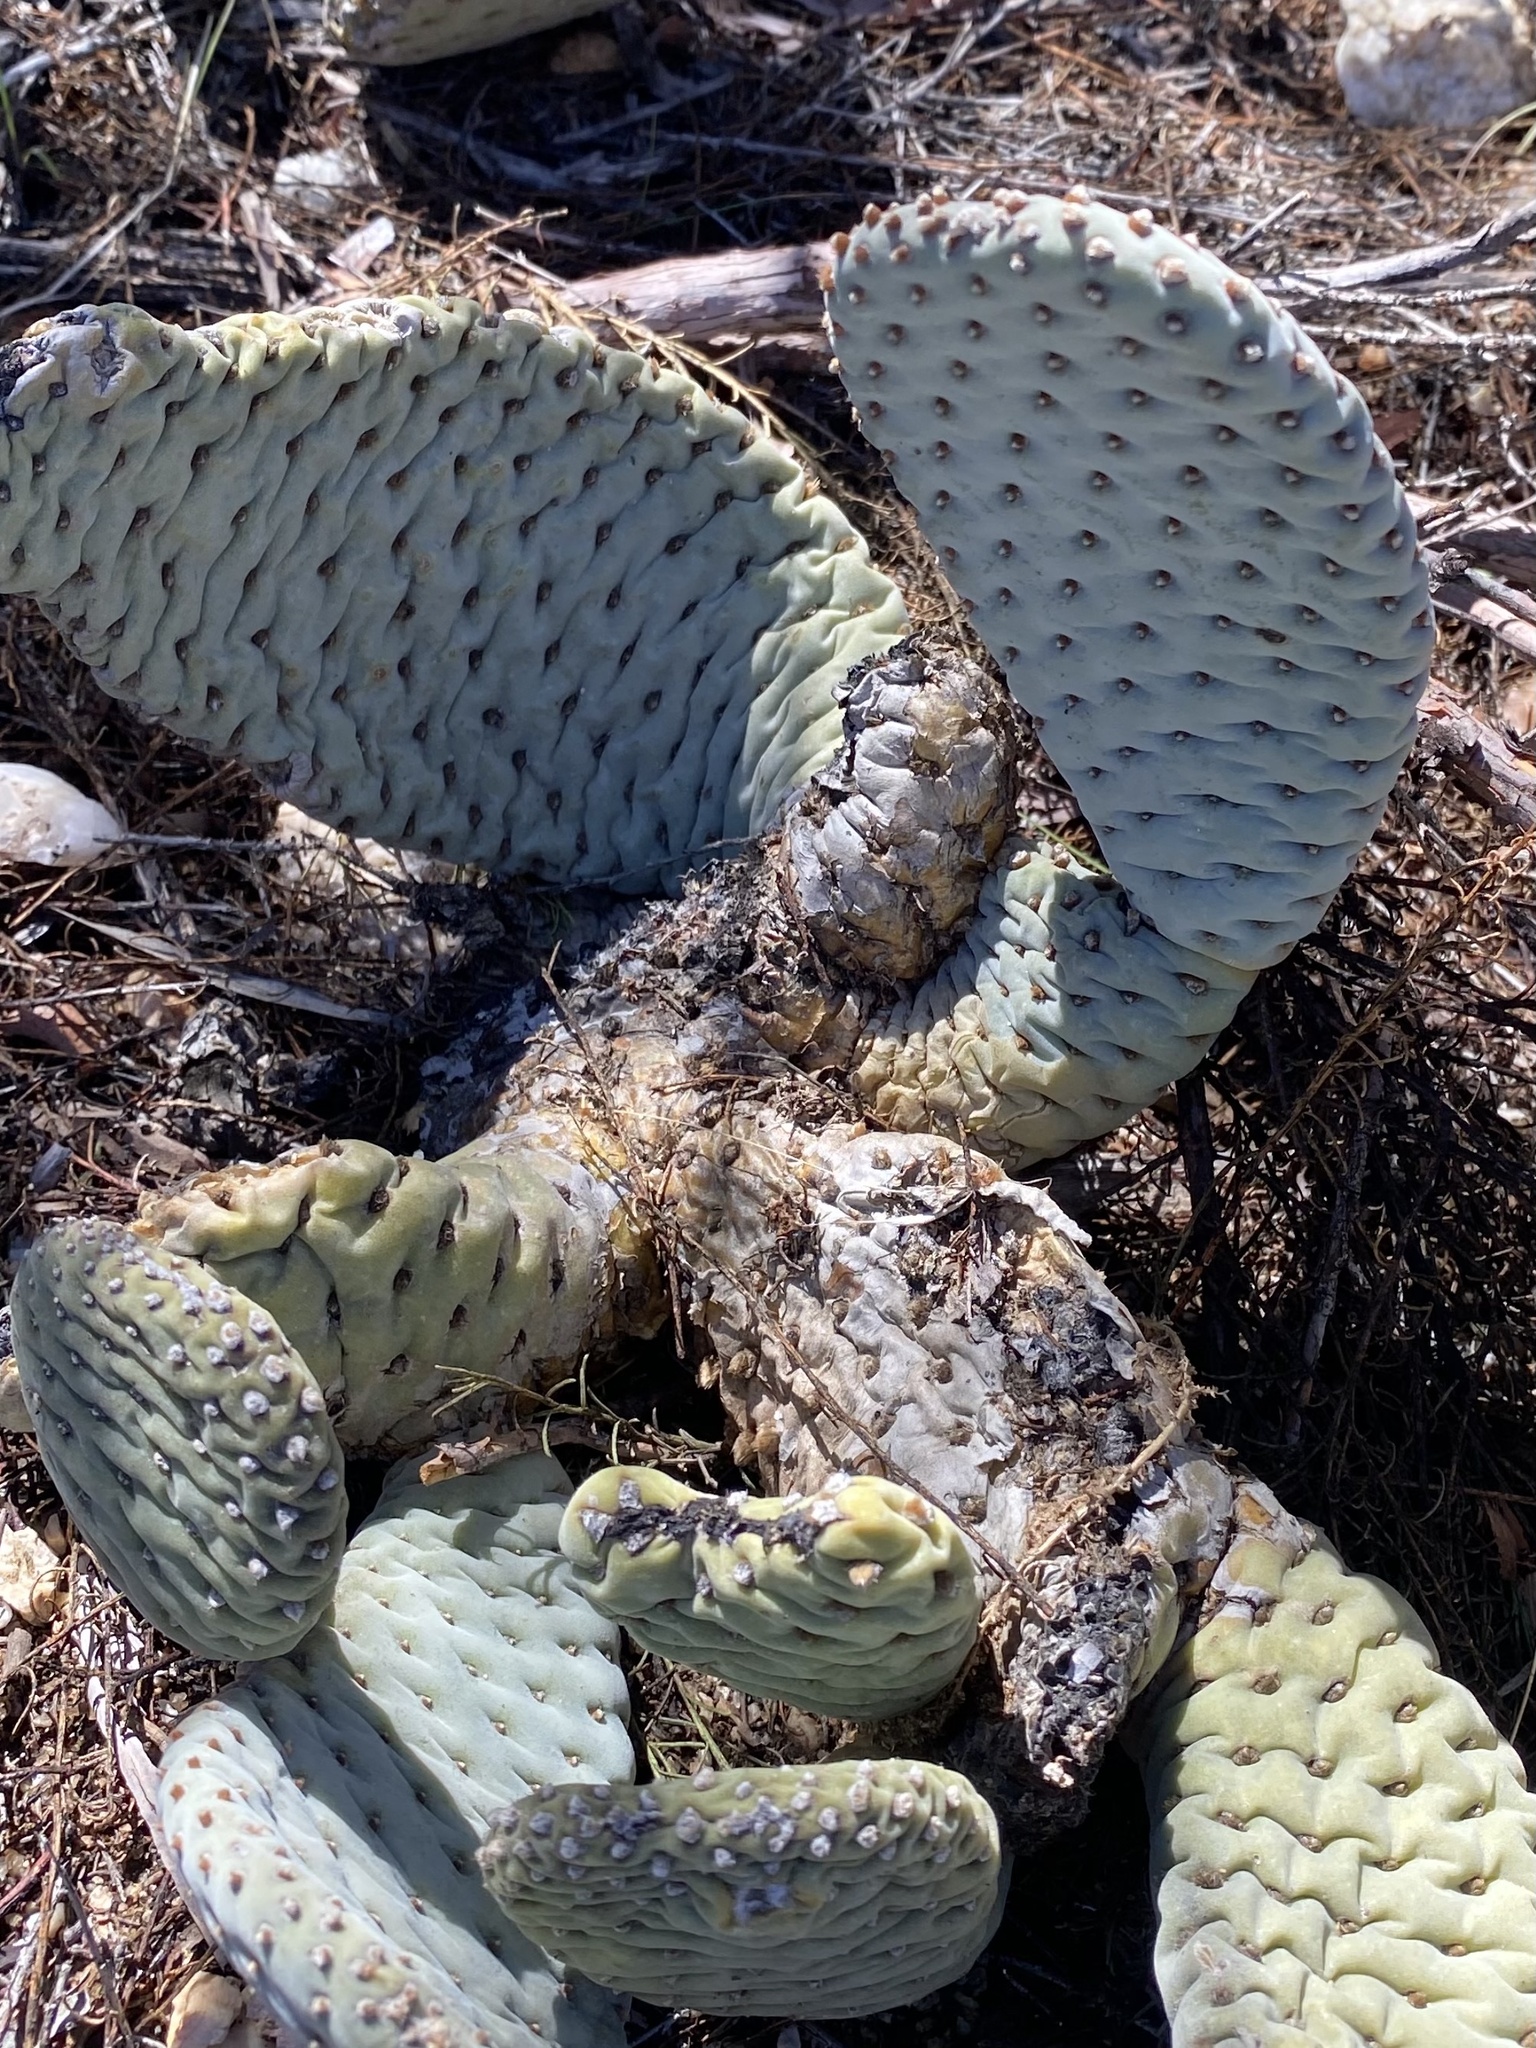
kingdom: Plantae
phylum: Tracheophyta
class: Magnoliopsida
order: Caryophyllales
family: Cactaceae
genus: Opuntia
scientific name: Opuntia basilaris
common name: Beavertail prickly-pear
